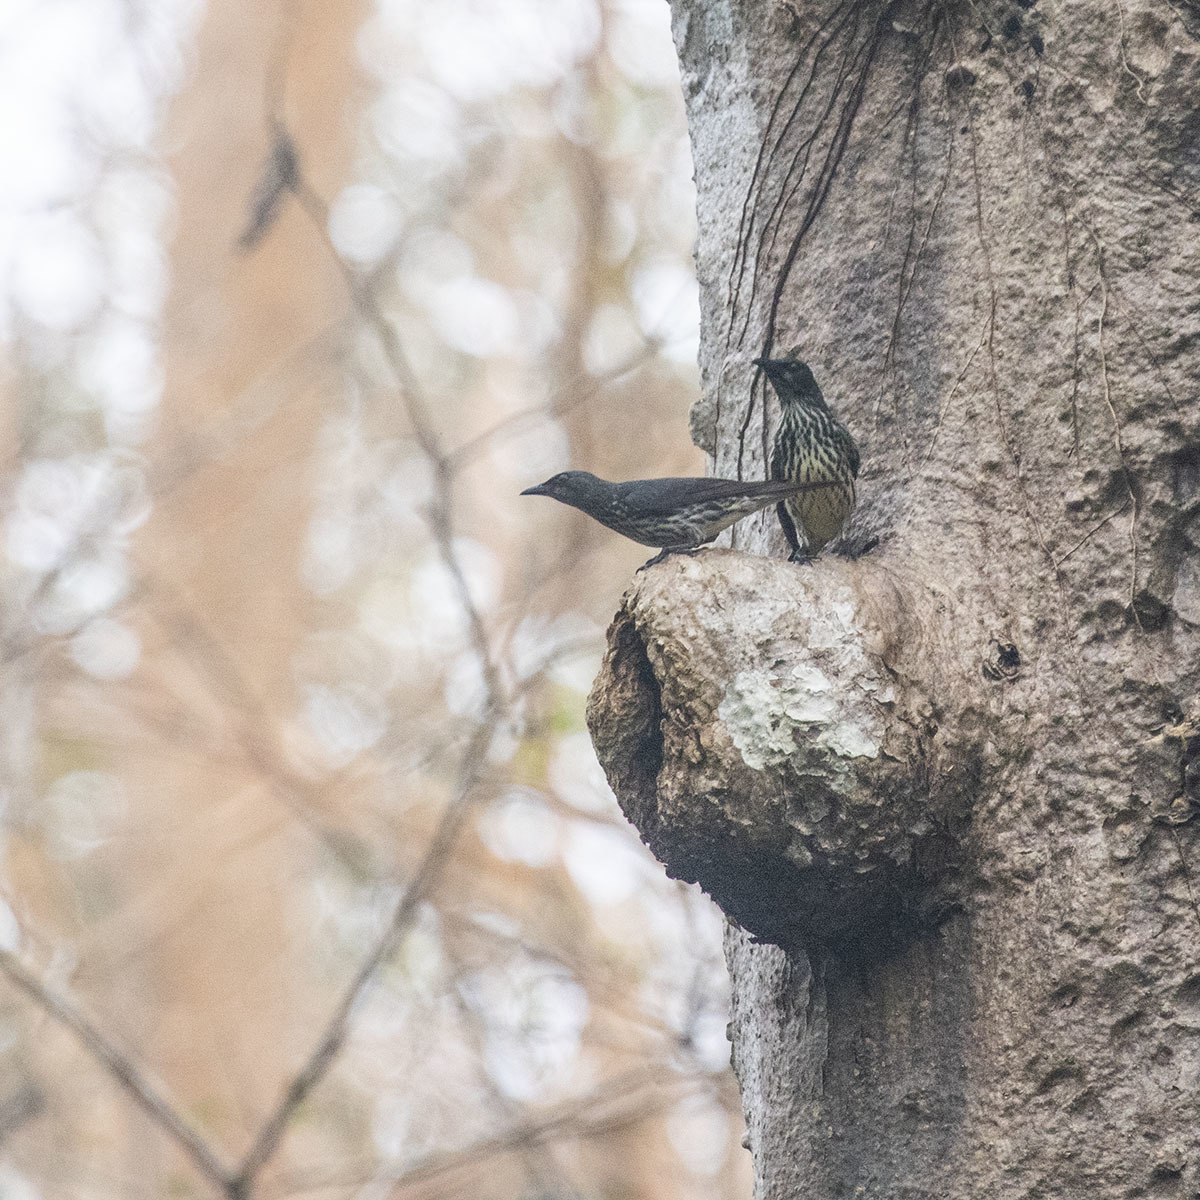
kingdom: Animalia
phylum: Chordata
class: Aves
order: Passeriformes
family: Sturnidae
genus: Aplonis
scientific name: Aplonis panayensis
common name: Asian glossy starling
